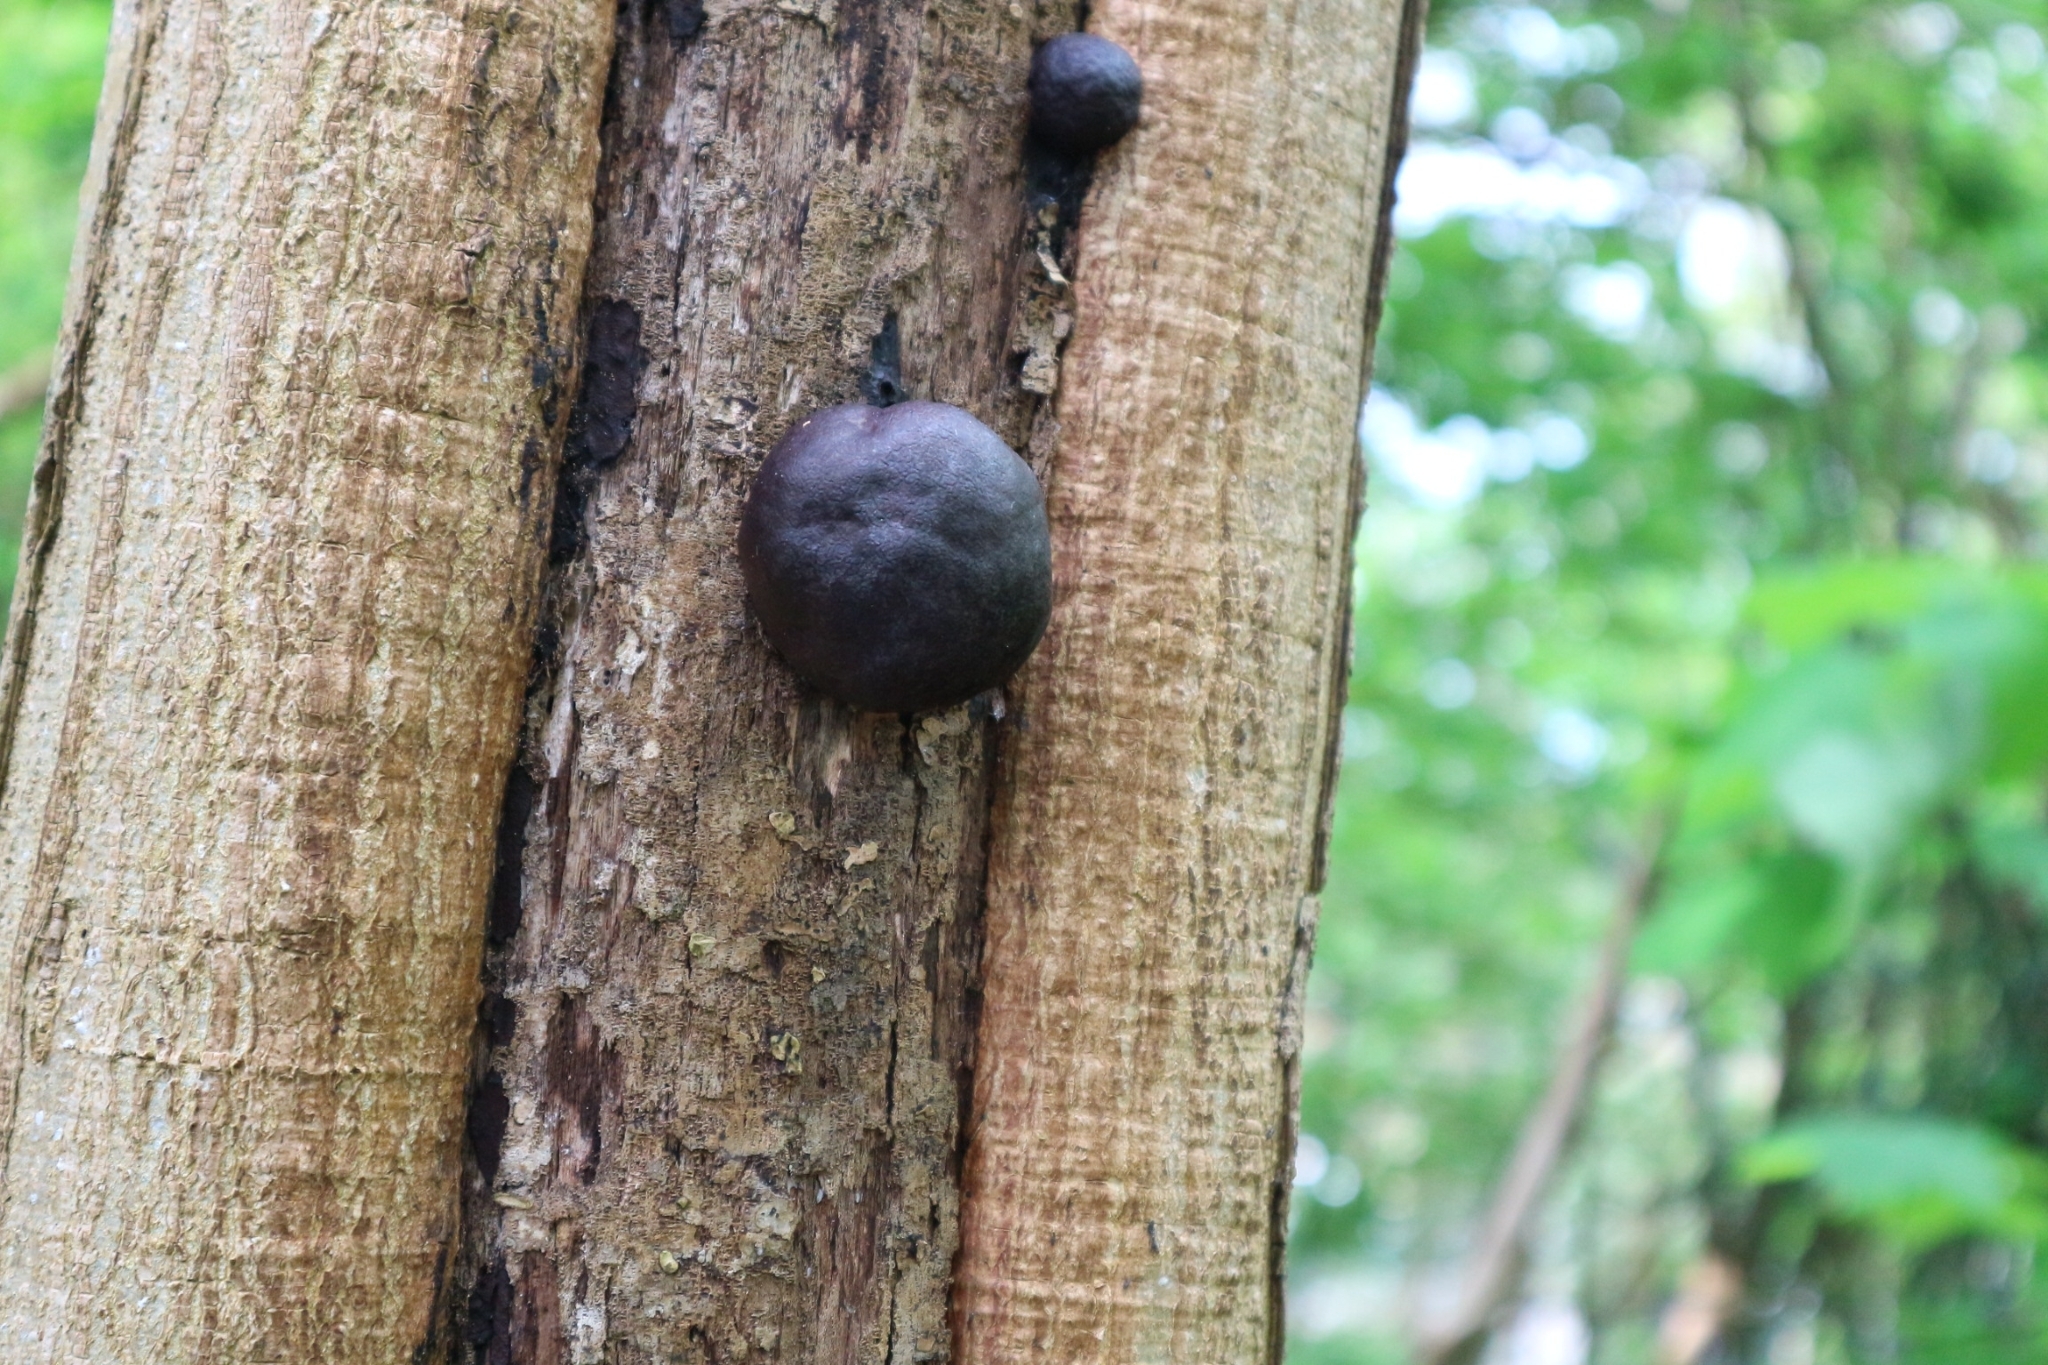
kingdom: Fungi
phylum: Ascomycota
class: Sordariomycetes
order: Xylariales
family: Hypoxylaceae
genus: Daldinia
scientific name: Daldinia concentrica
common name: Cramp balls
